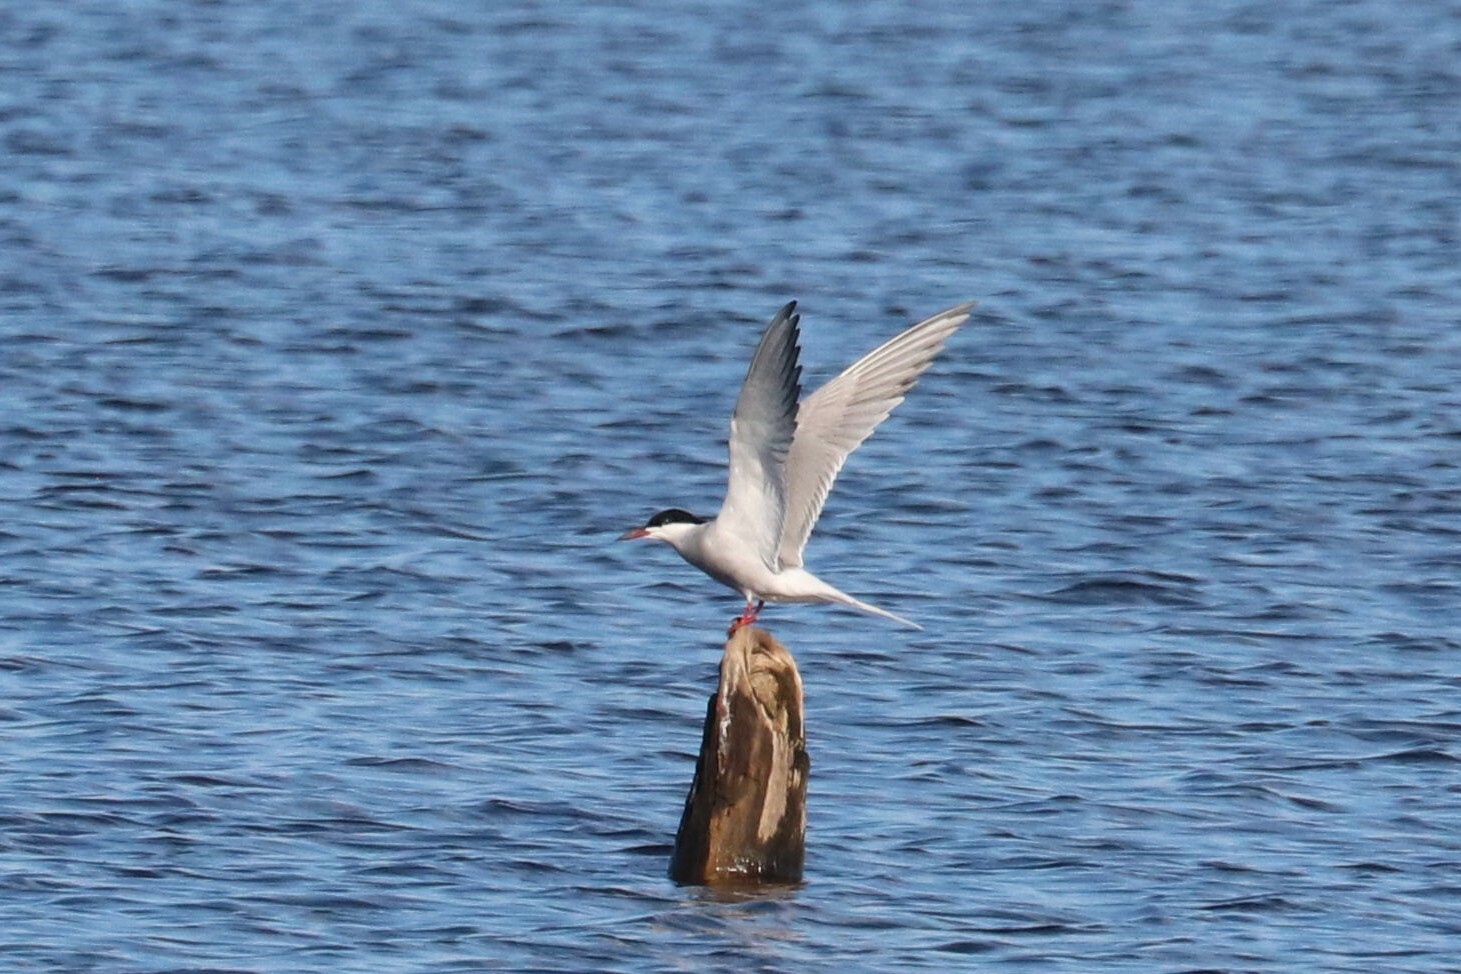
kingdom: Animalia
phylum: Chordata
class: Aves
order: Charadriiformes
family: Laridae
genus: Sterna
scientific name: Sterna hirundo
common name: Common tern
